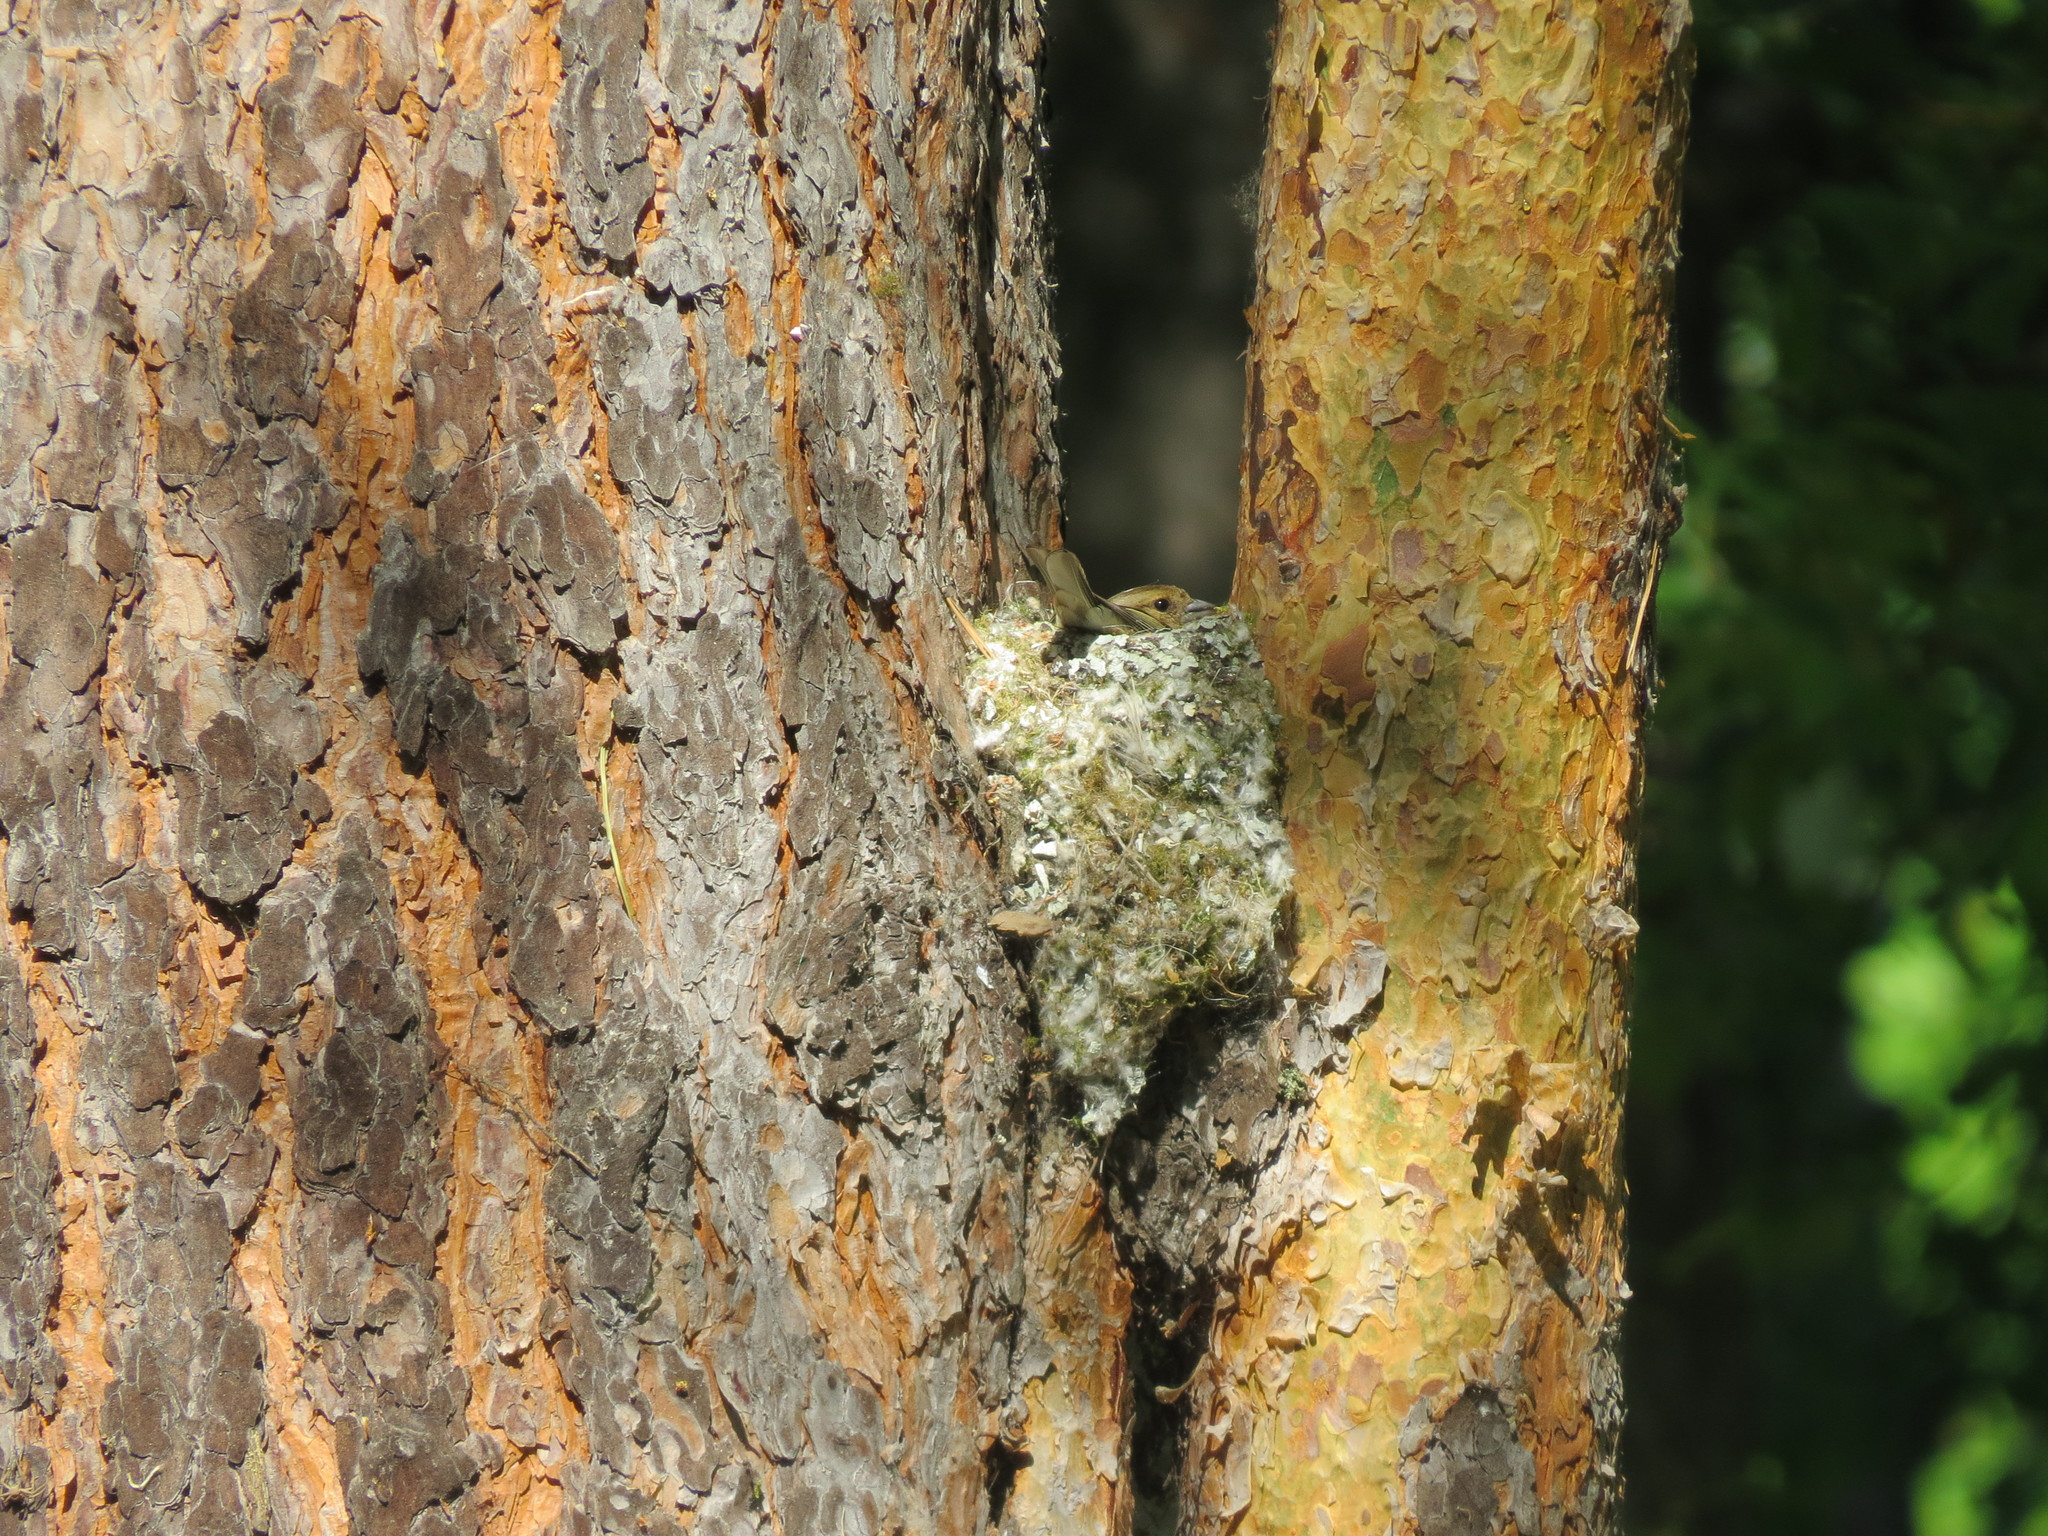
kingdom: Animalia
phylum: Chordata
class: Aves
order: Passeriformes
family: Fringillidae
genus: Fringilla
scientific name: Fringilla coelebs
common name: Common chaffinch
